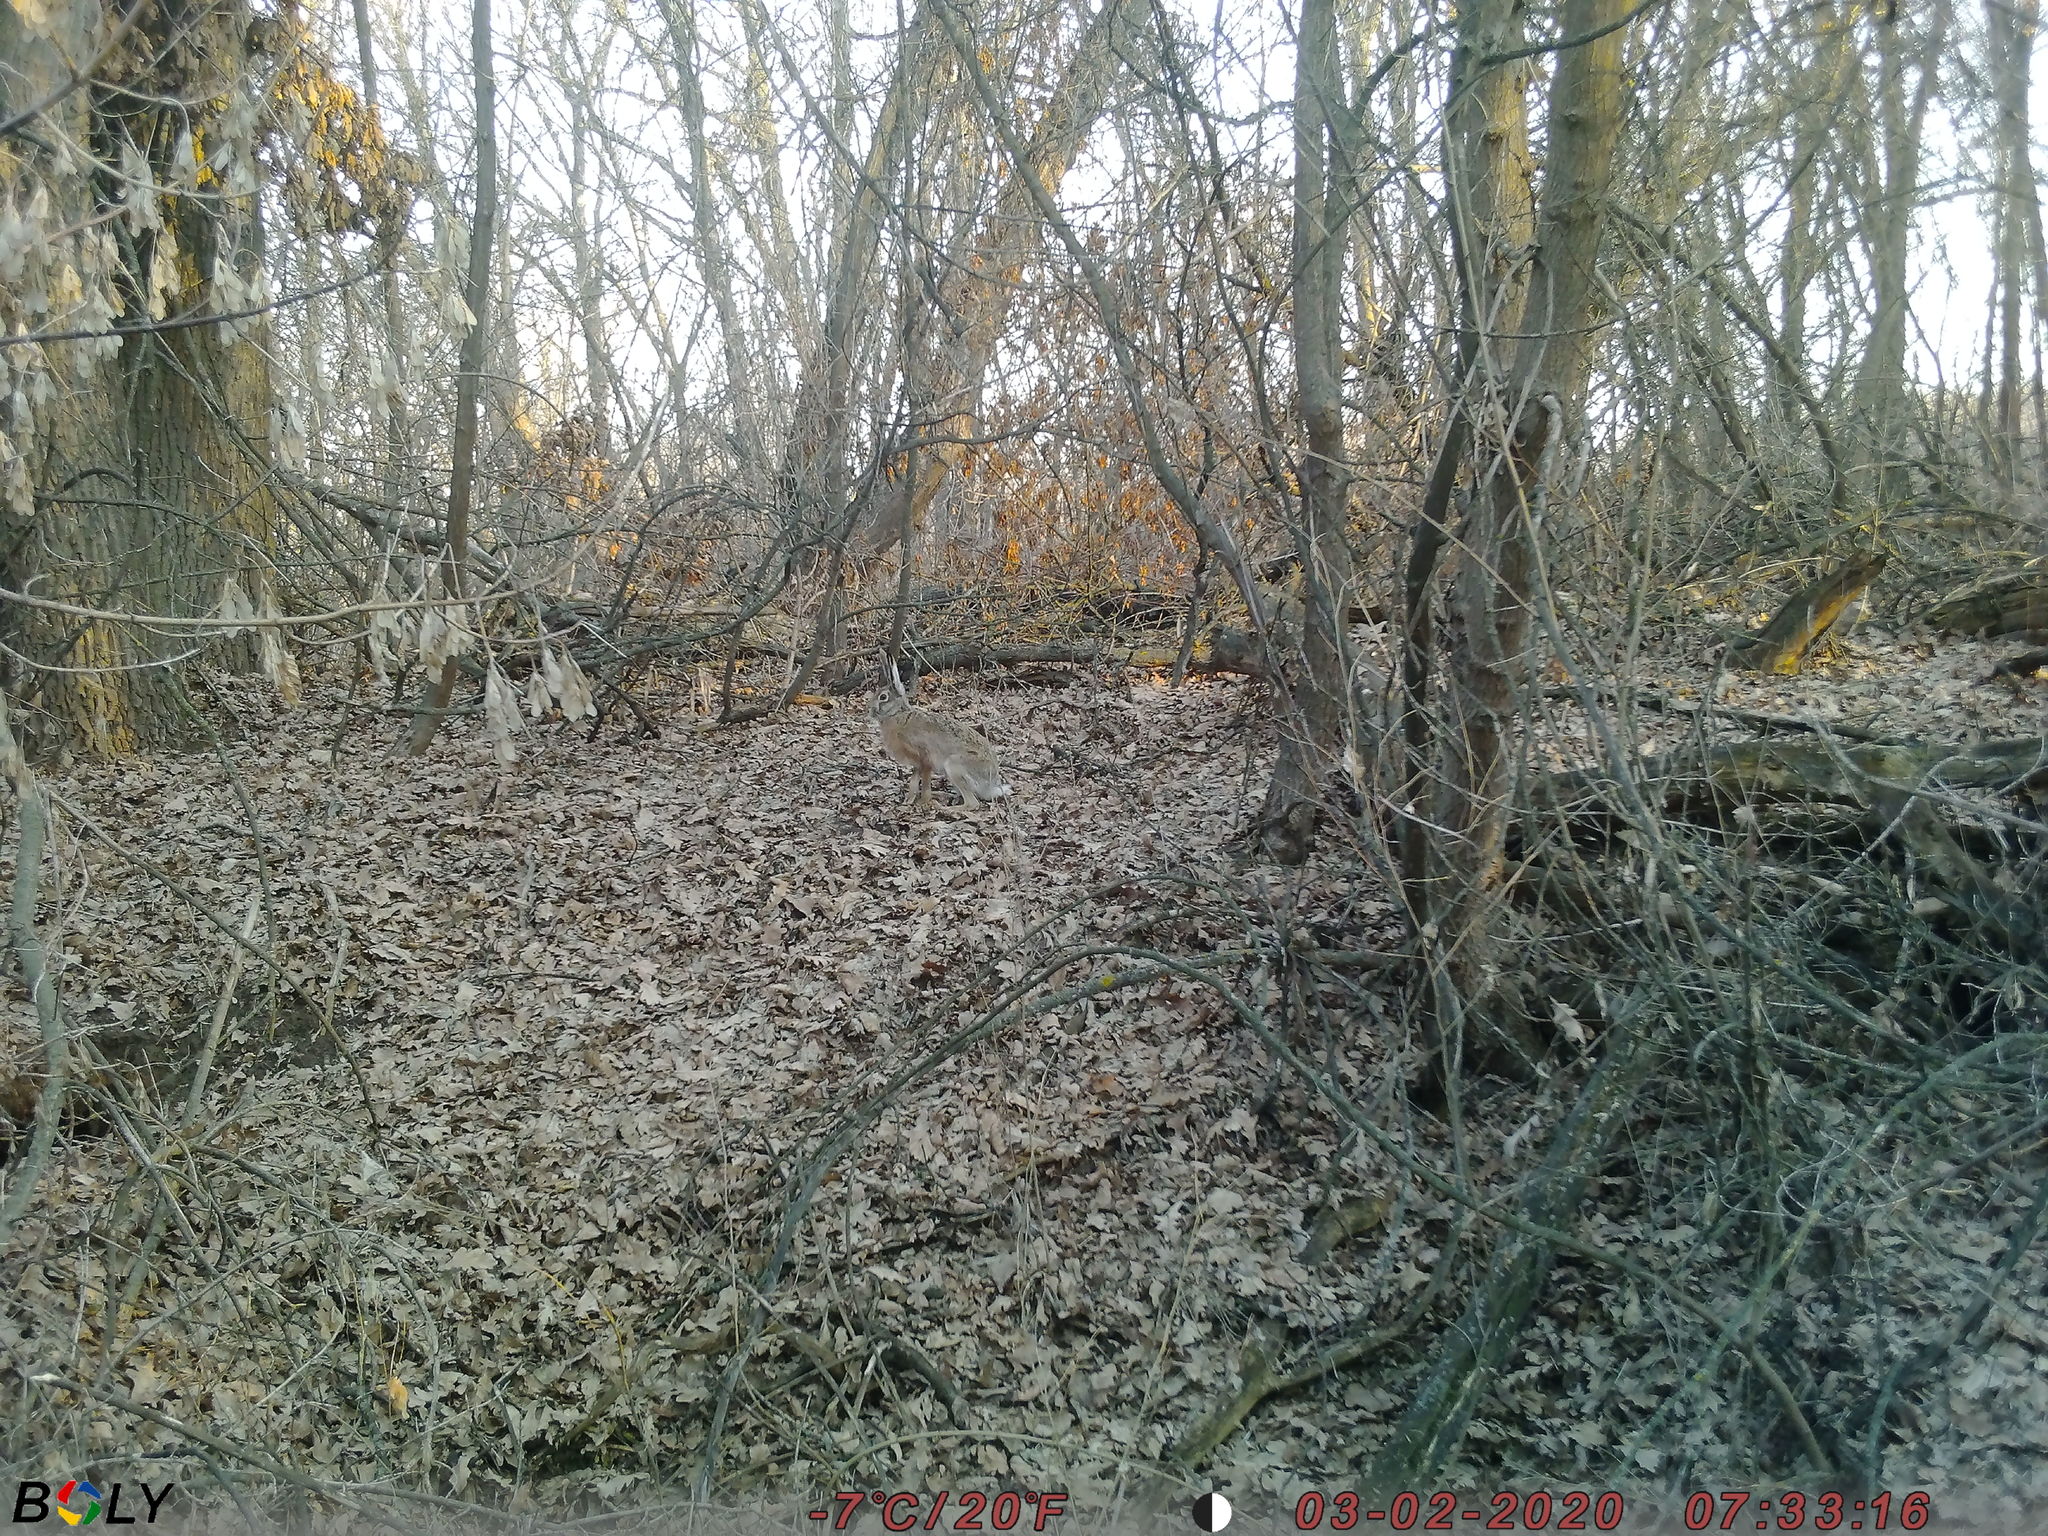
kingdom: Animalia
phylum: Chordata
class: Mammalia
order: Lagomorpha
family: Leporidae
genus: Lepus
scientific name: Lepus europaeus
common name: European hare
